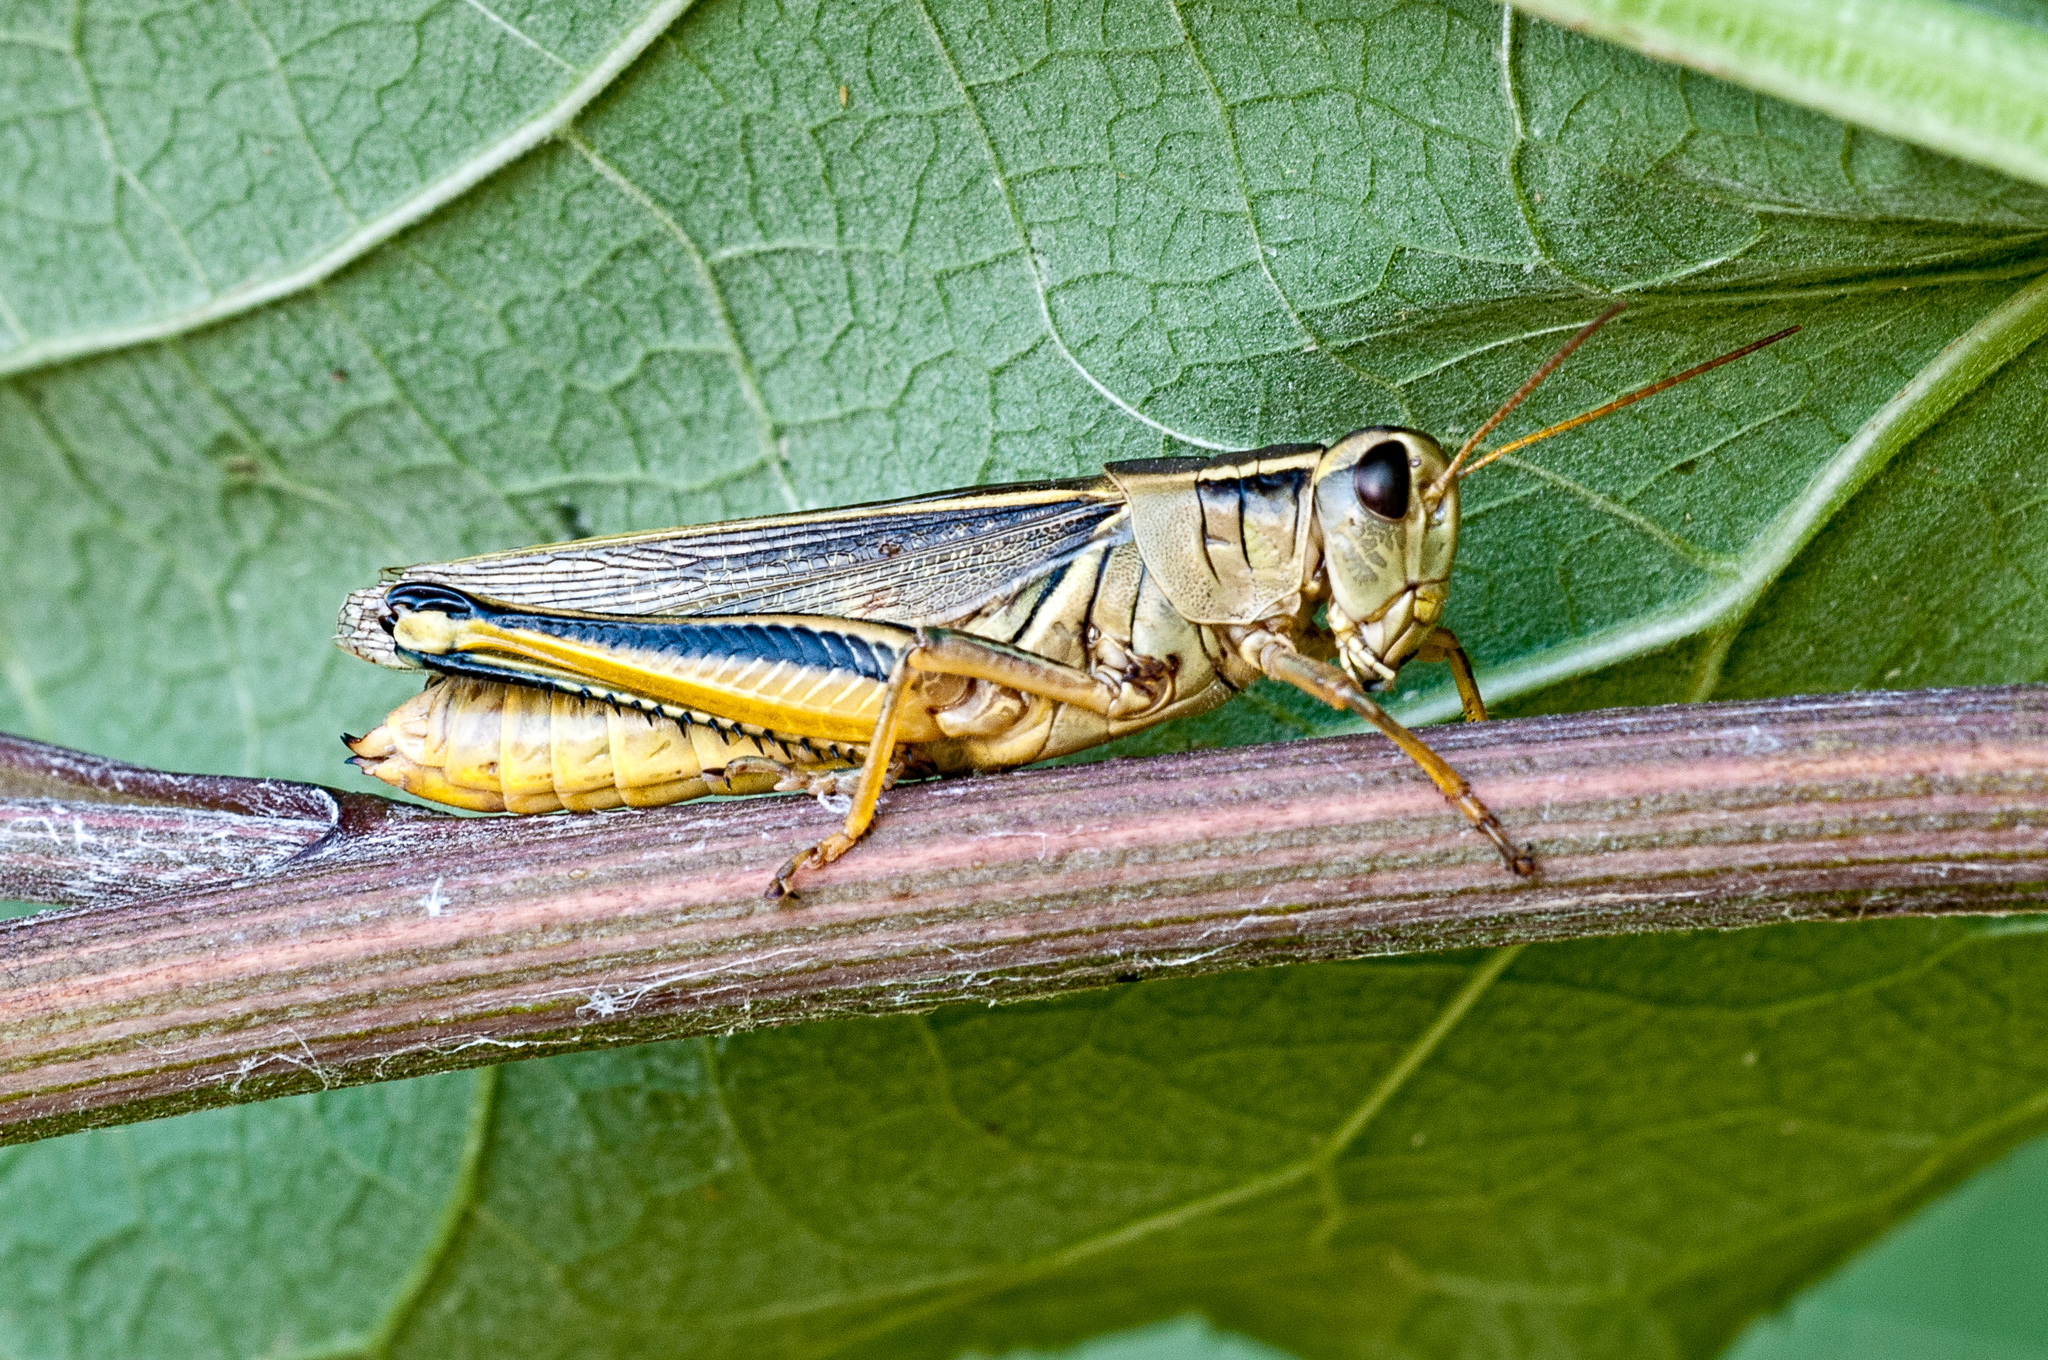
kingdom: Animalia
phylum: Arthropoda
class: Insecta
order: Orthoptera
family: Acrididae
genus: Melanoplus
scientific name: Melanoplus bivittatus
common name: Two-striped grasshopper
